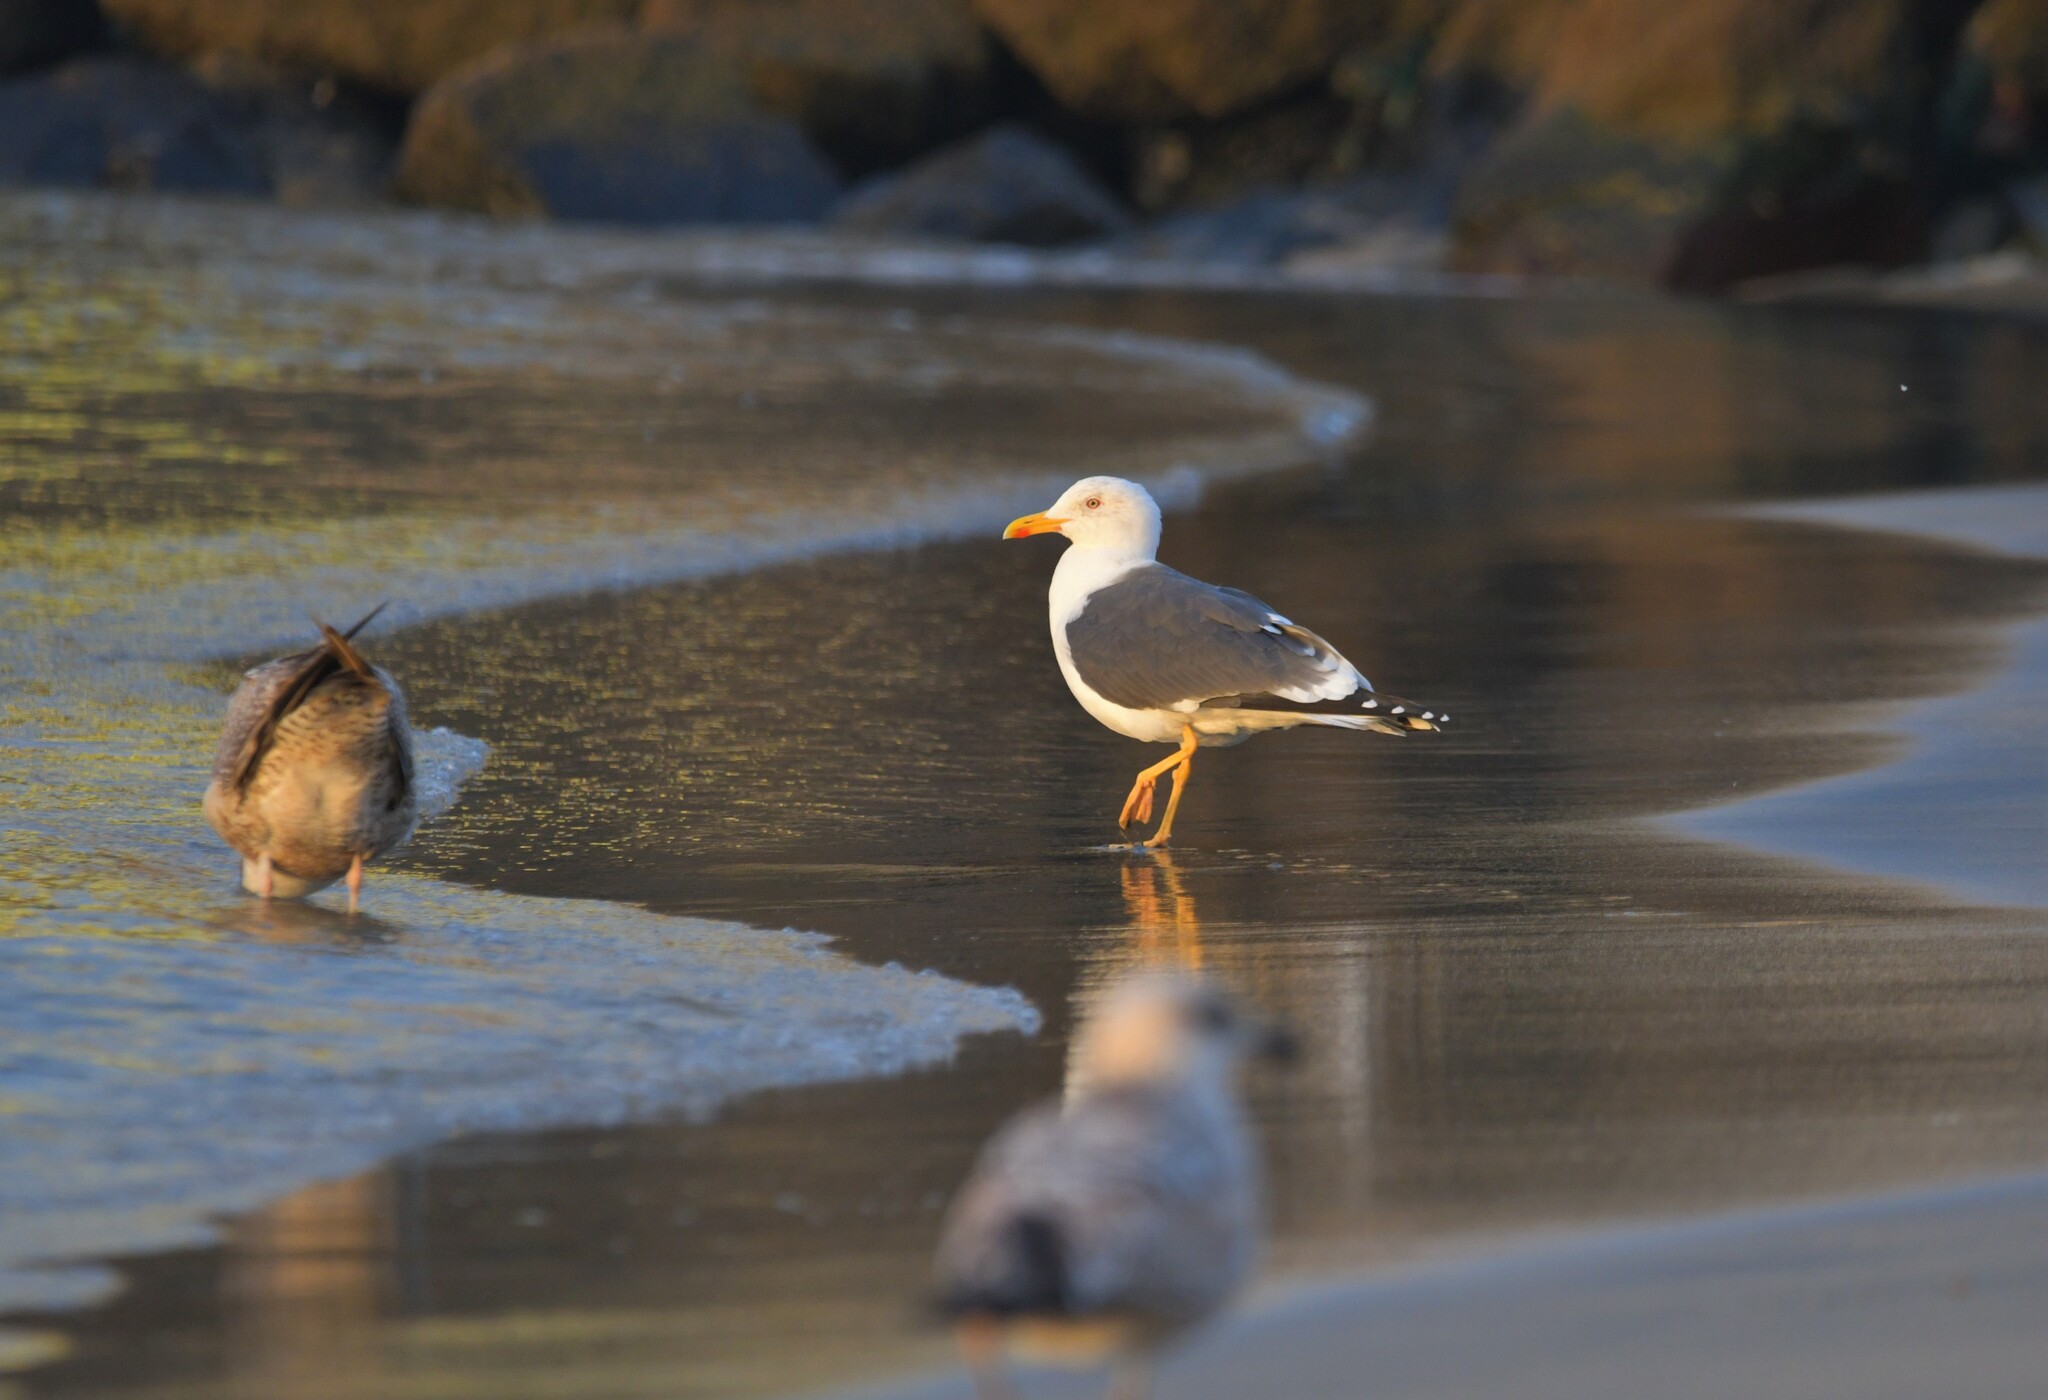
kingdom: Animalia
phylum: Chordata
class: Aves
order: Charadriiformes
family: Laridae
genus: Larus
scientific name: Larus fuscus
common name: Lesser black-backed gull
